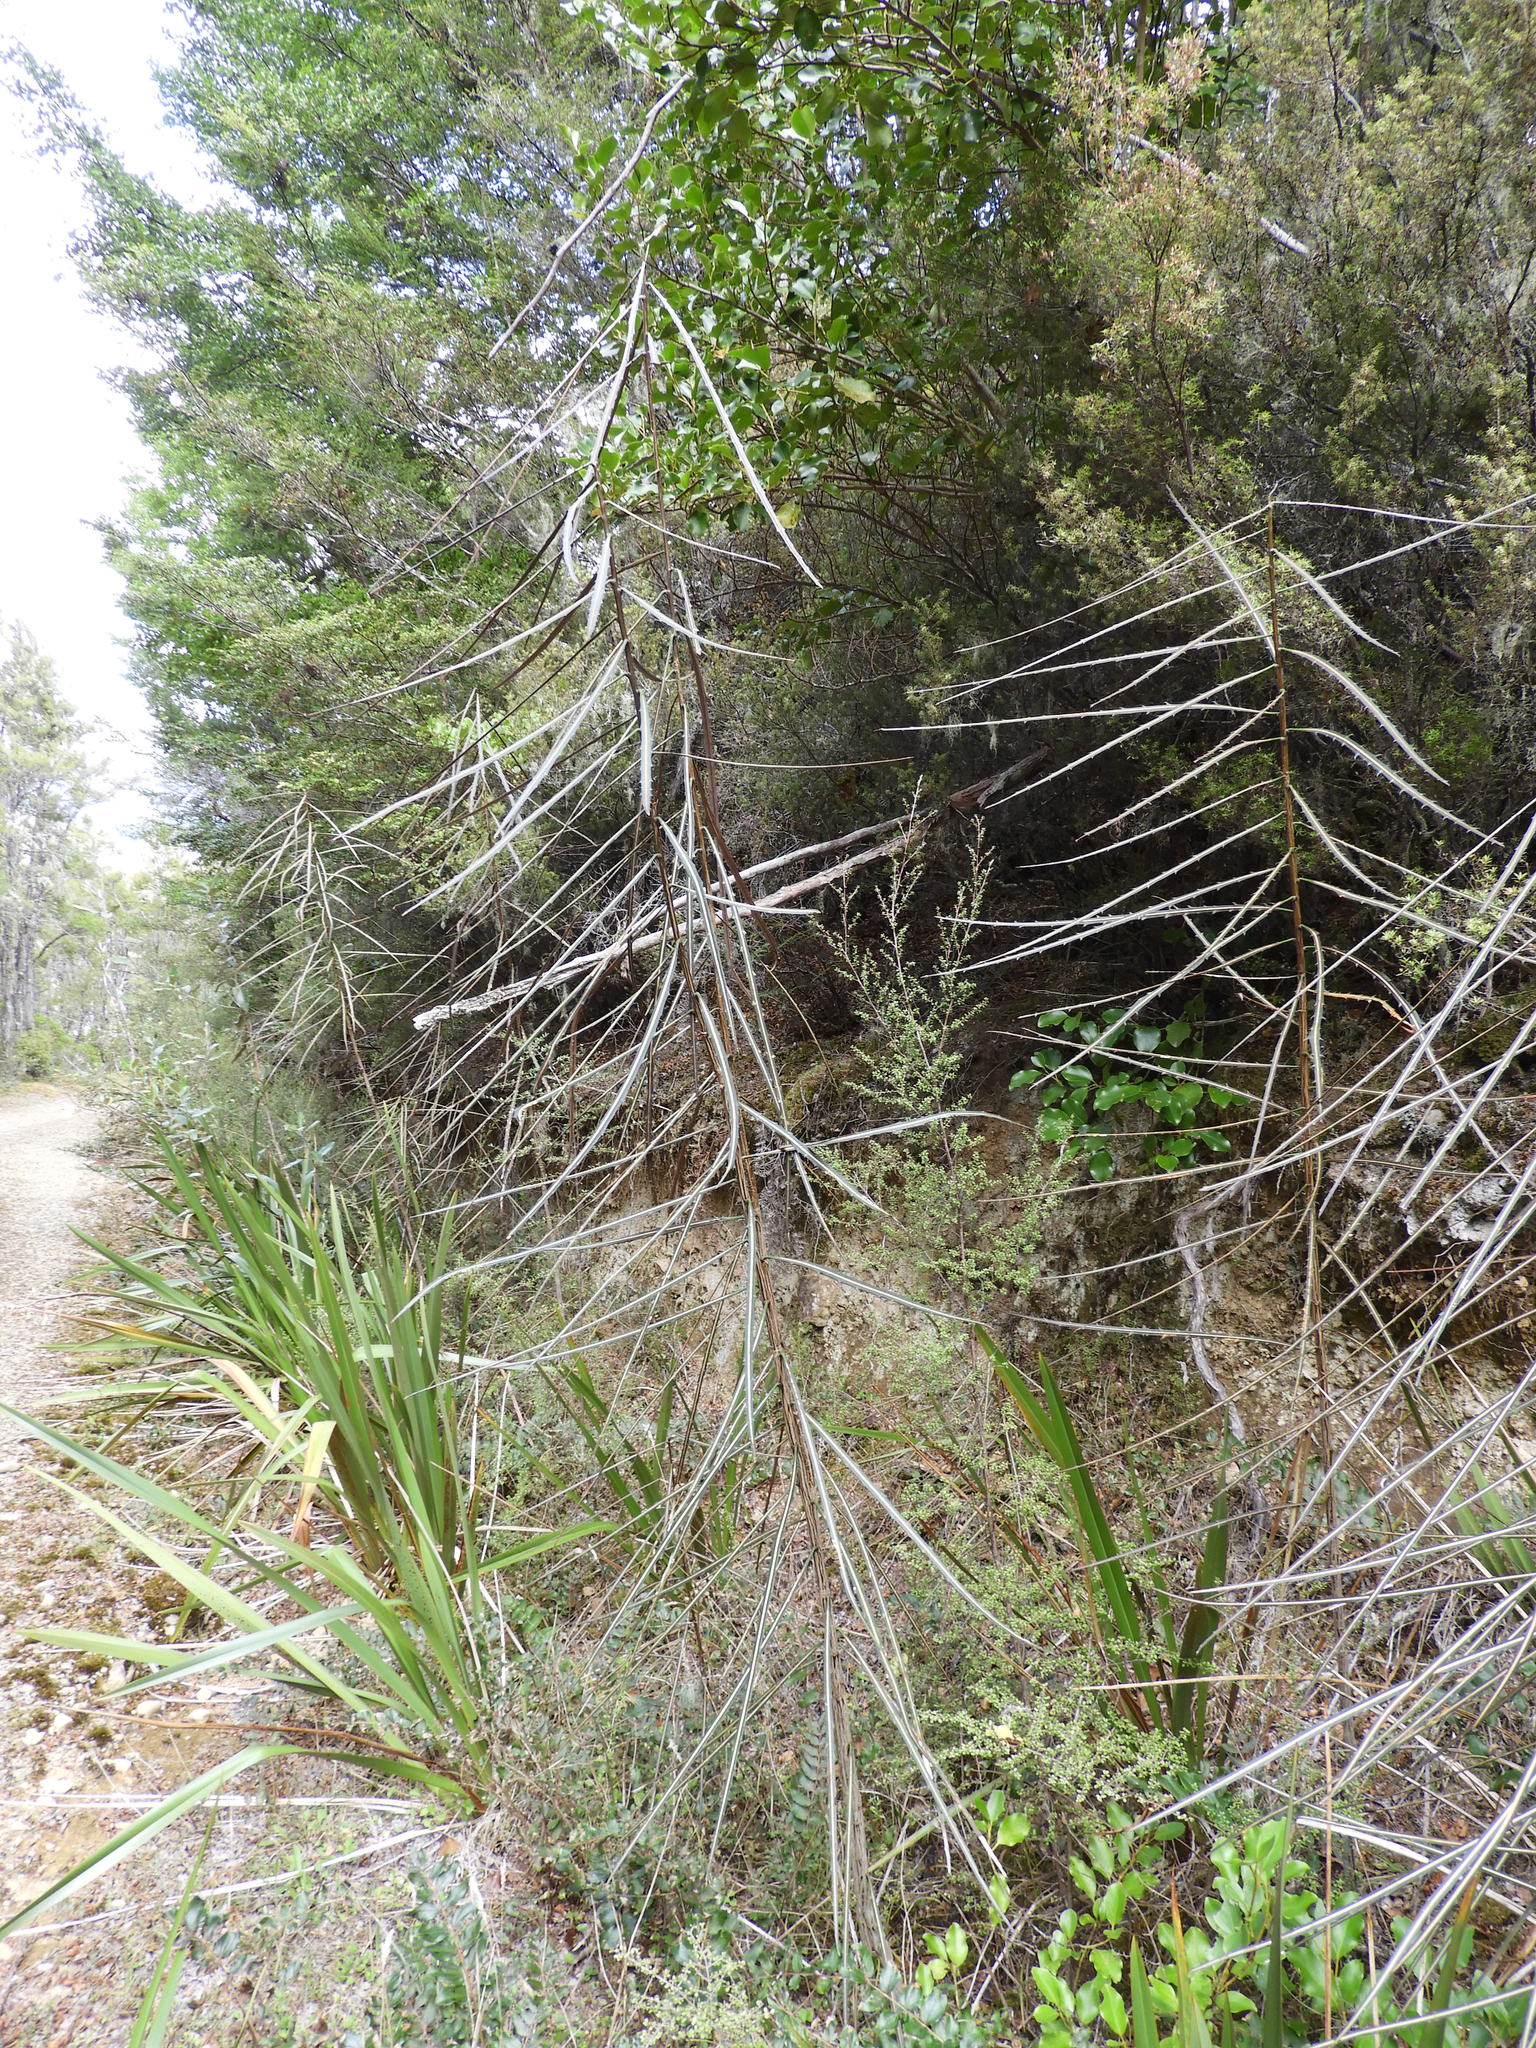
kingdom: Plantae
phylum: Tracheophyta
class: Magnoliopsida
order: Apiales
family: Araliaceae
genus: Pseudopanax
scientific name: Pseudopanax crassifolius
